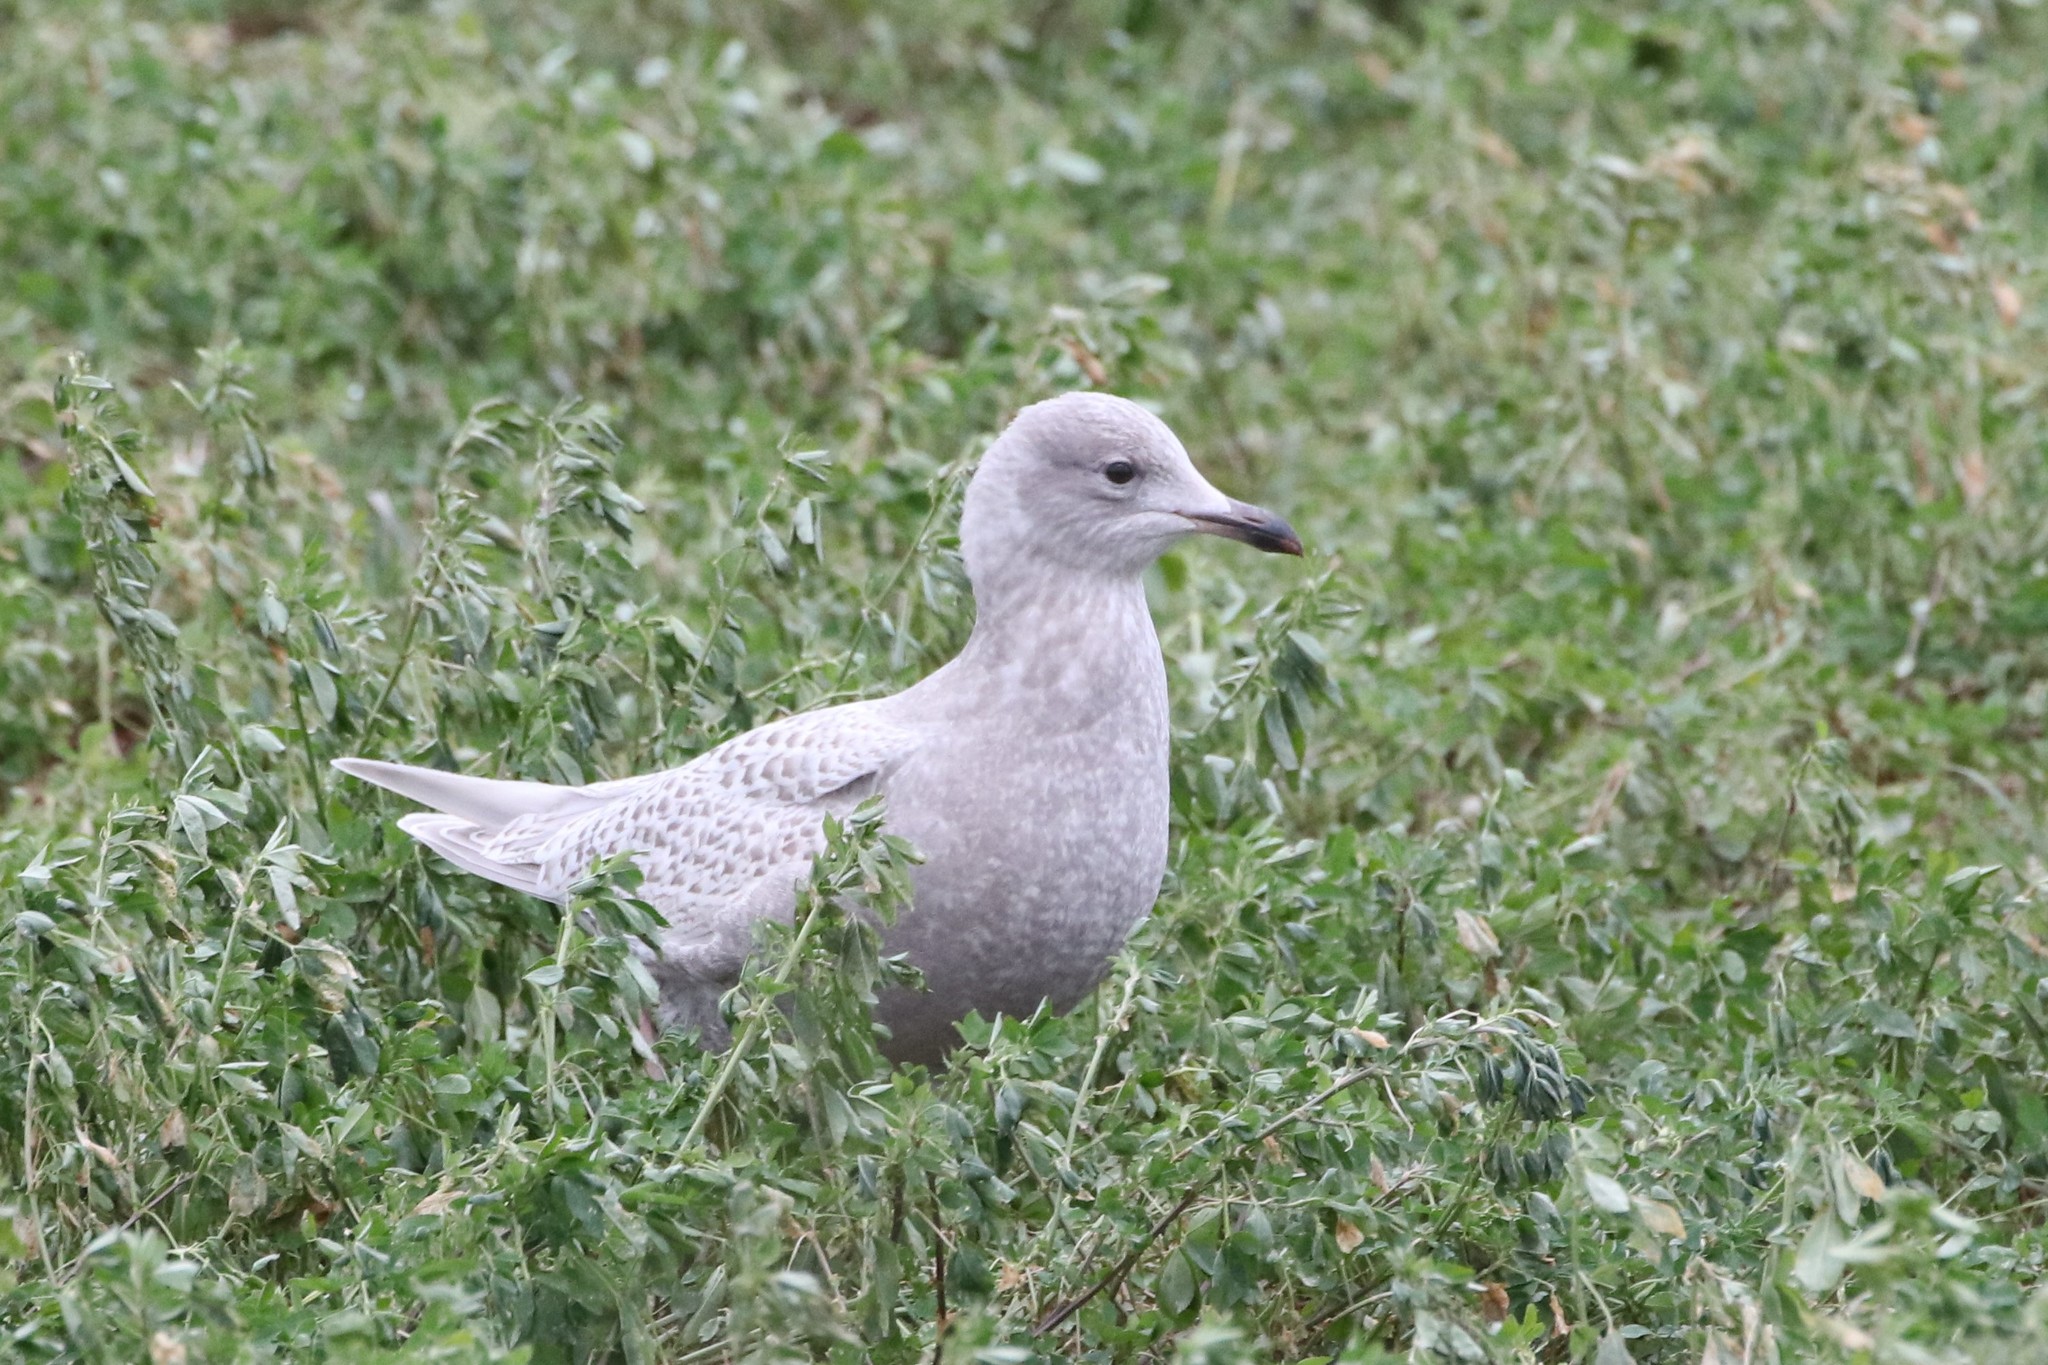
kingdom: Animalia
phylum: Chordata
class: Aves
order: Charadriiformes
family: Laridae
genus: Larus
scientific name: Larus glaucoides
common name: Iceland gull
